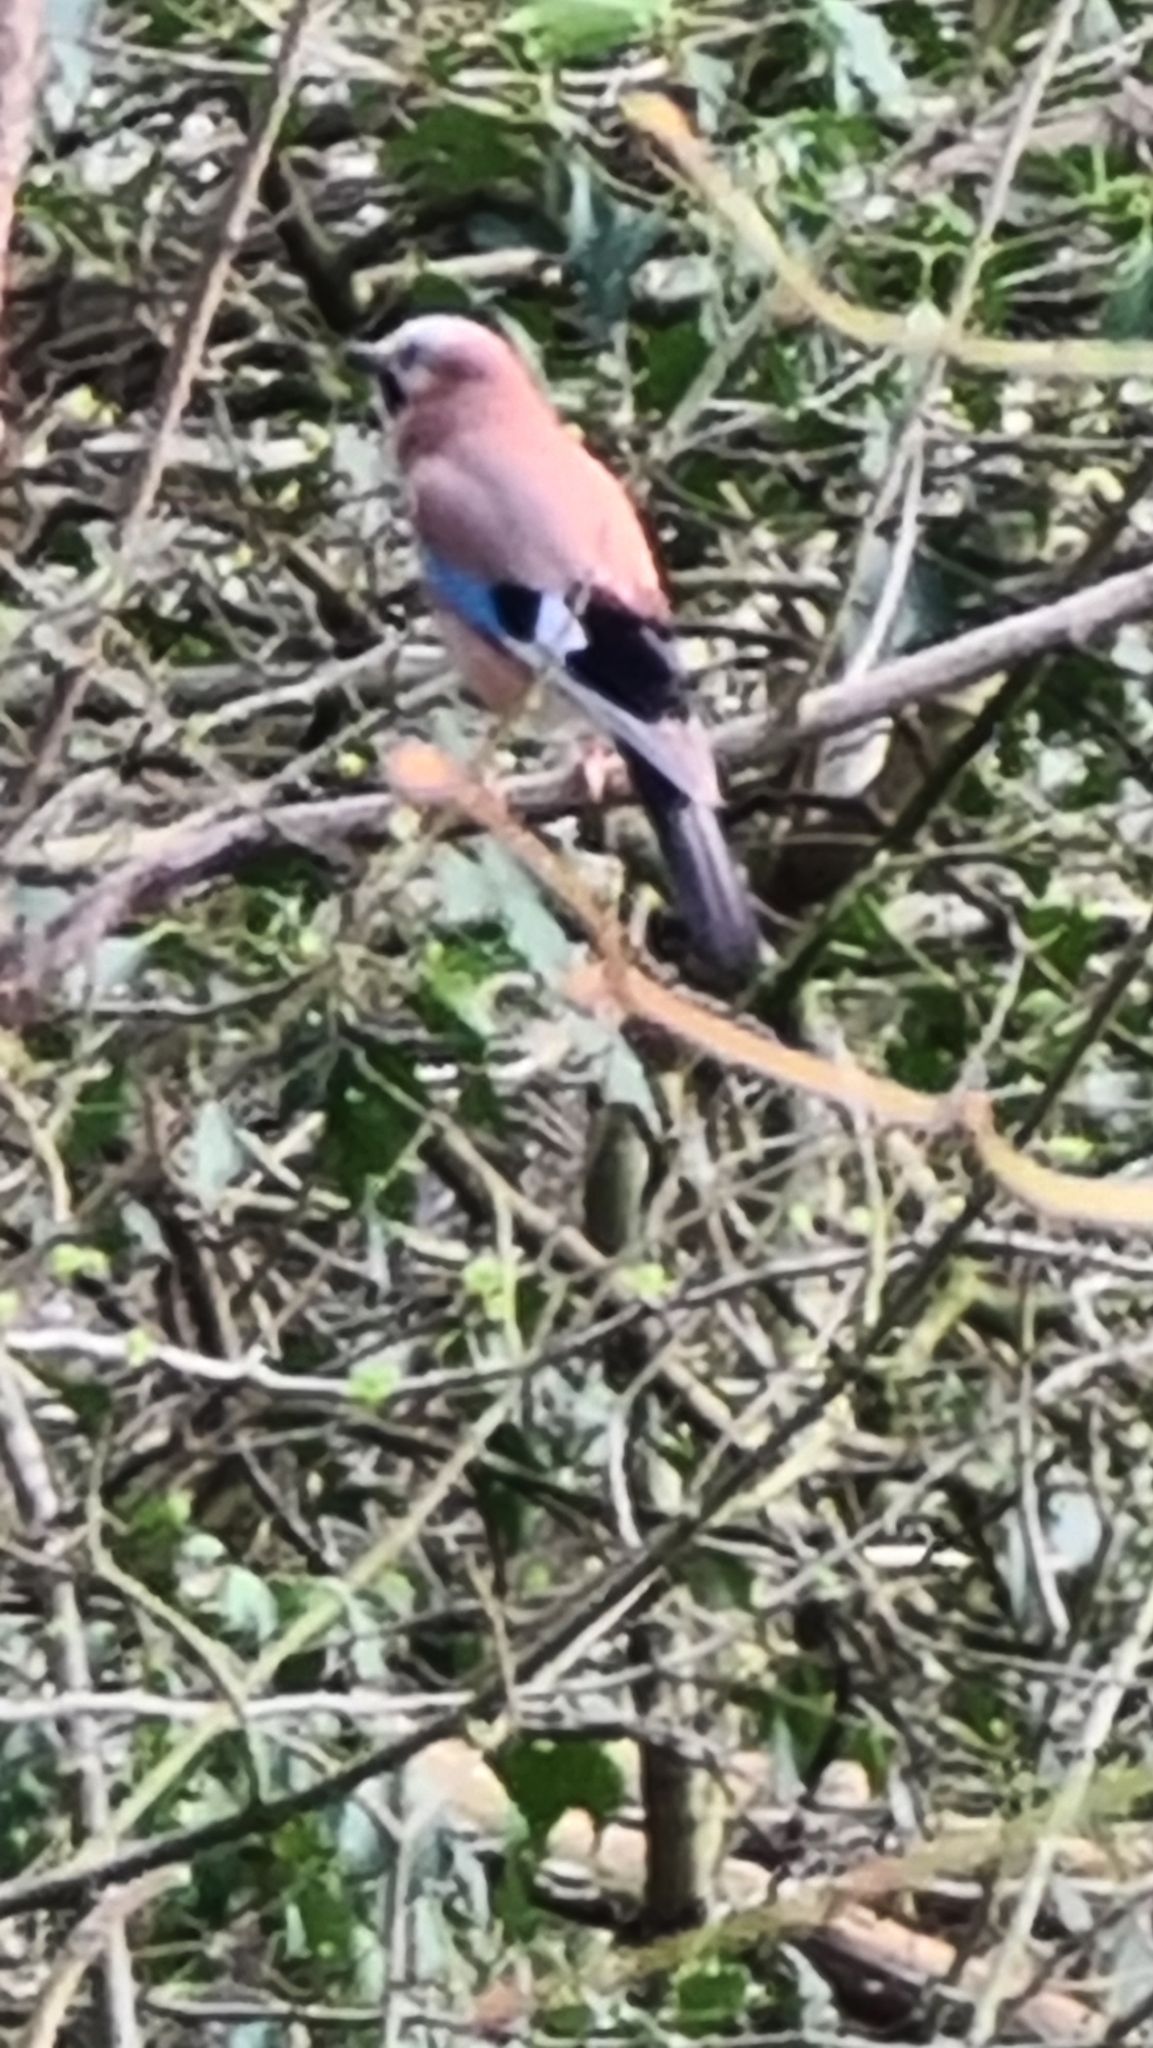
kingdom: Animalia
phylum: Chordata
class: Aves
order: Passeriformes
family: Corvidae
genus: Garrulus
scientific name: Garrulus glandarius
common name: Eurasian jay
